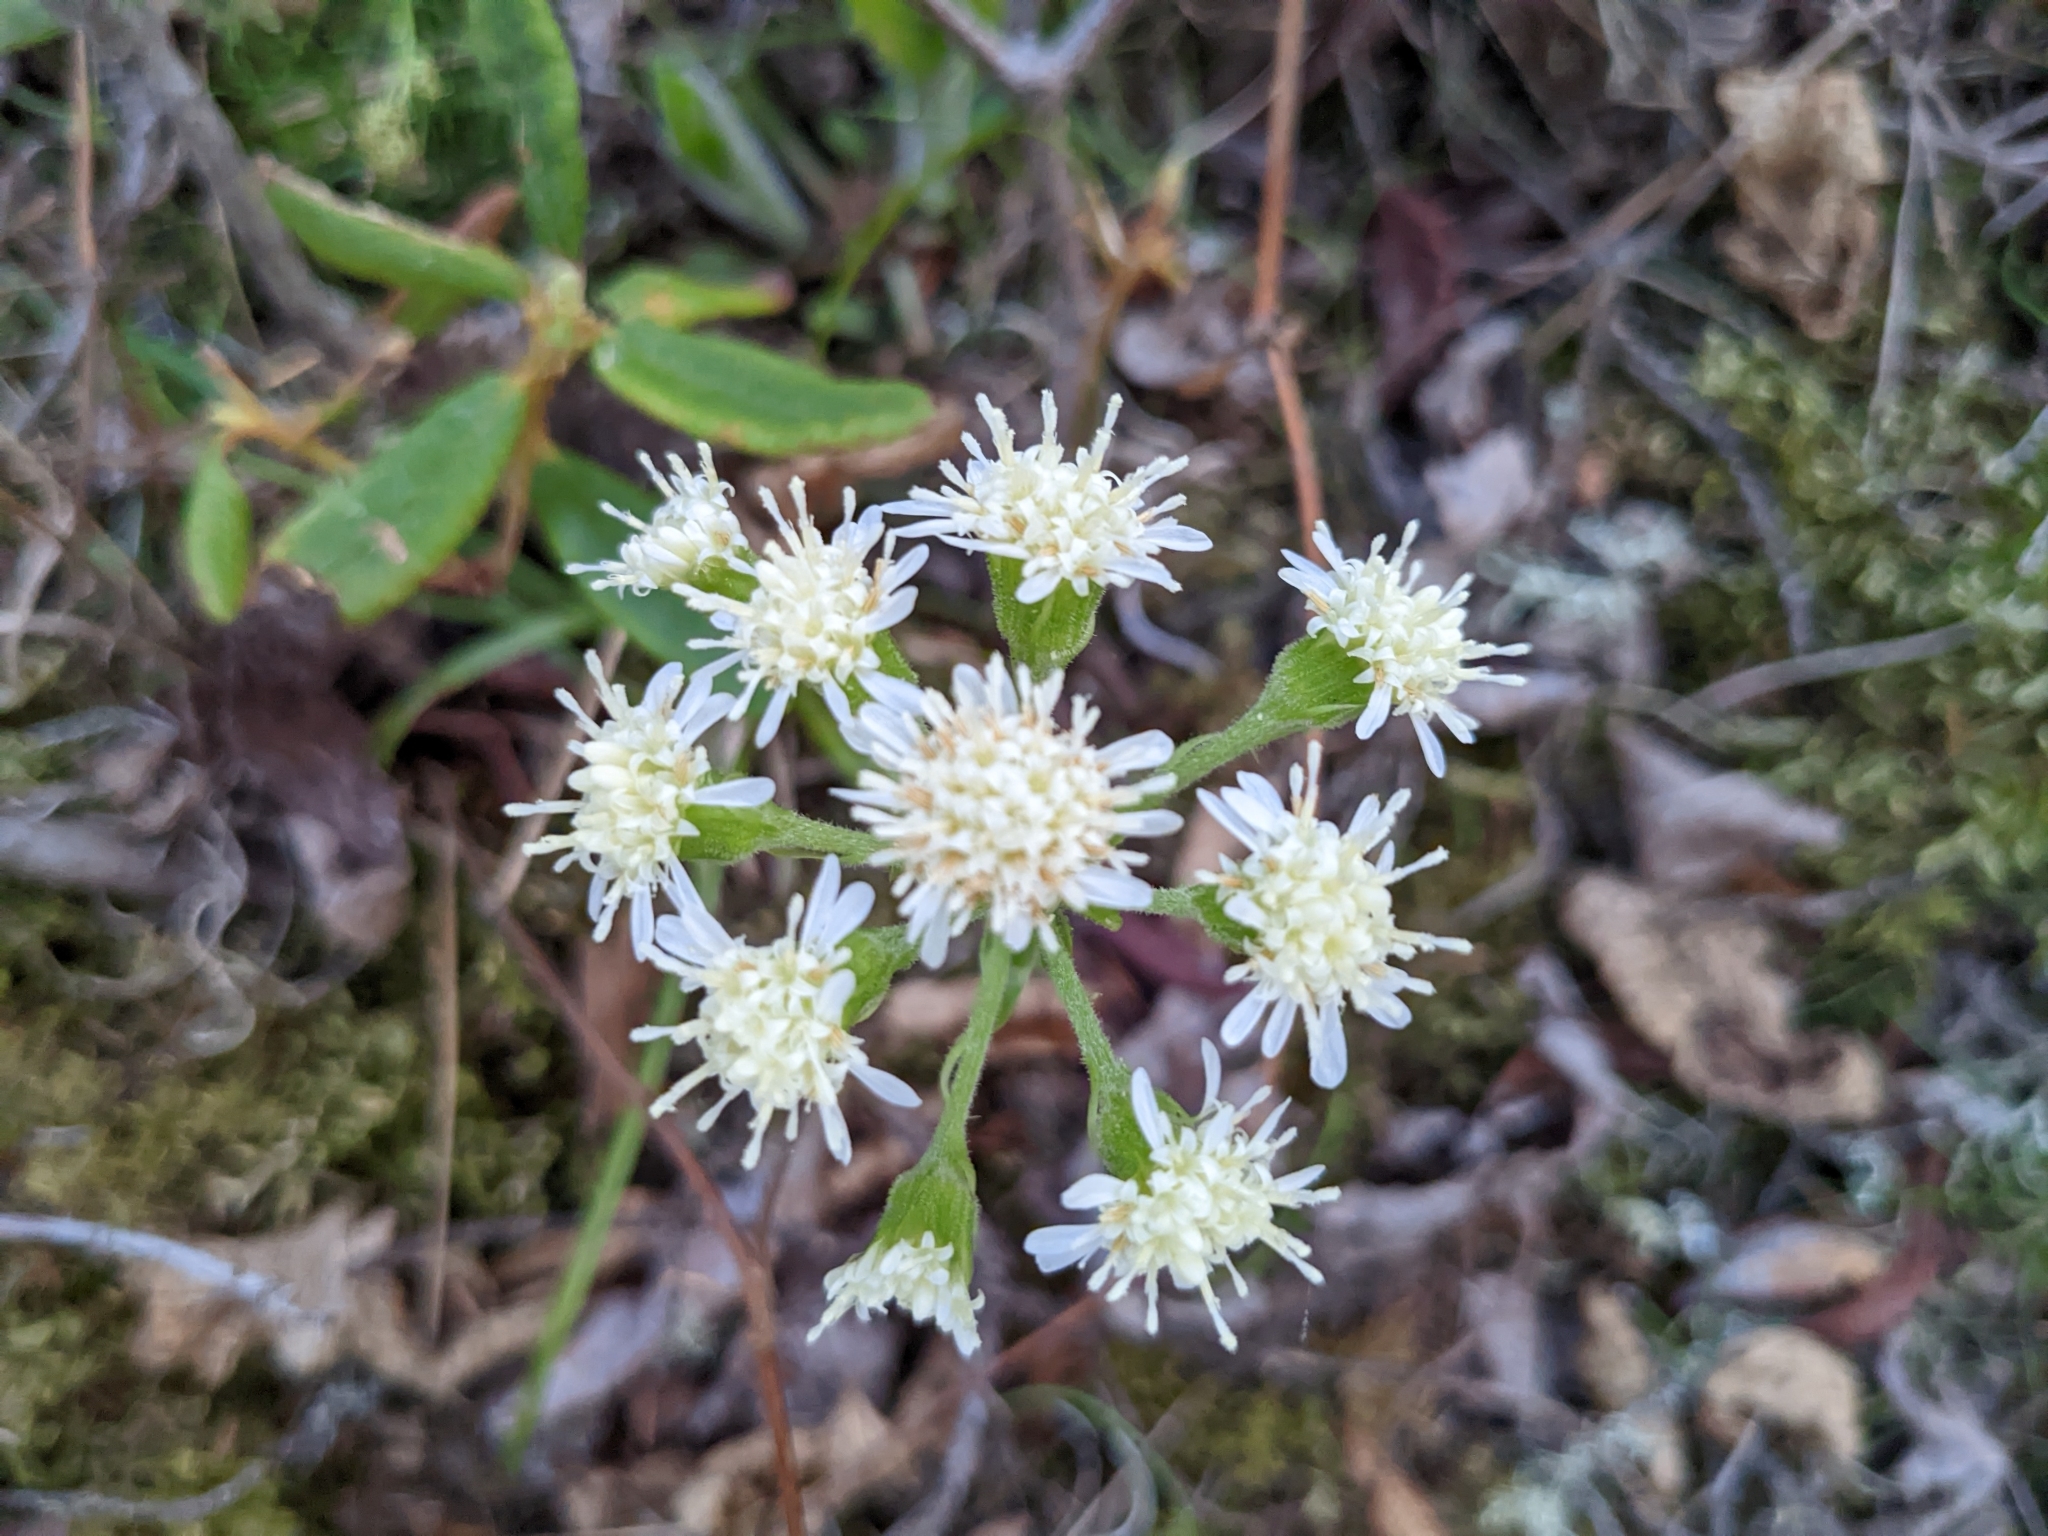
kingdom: Plantae
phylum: Tracheophyta
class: Magnoliopsida
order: Asterales
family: Asteraceae
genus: Petasites
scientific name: Petasites frigidus
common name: Arctic butterbur
